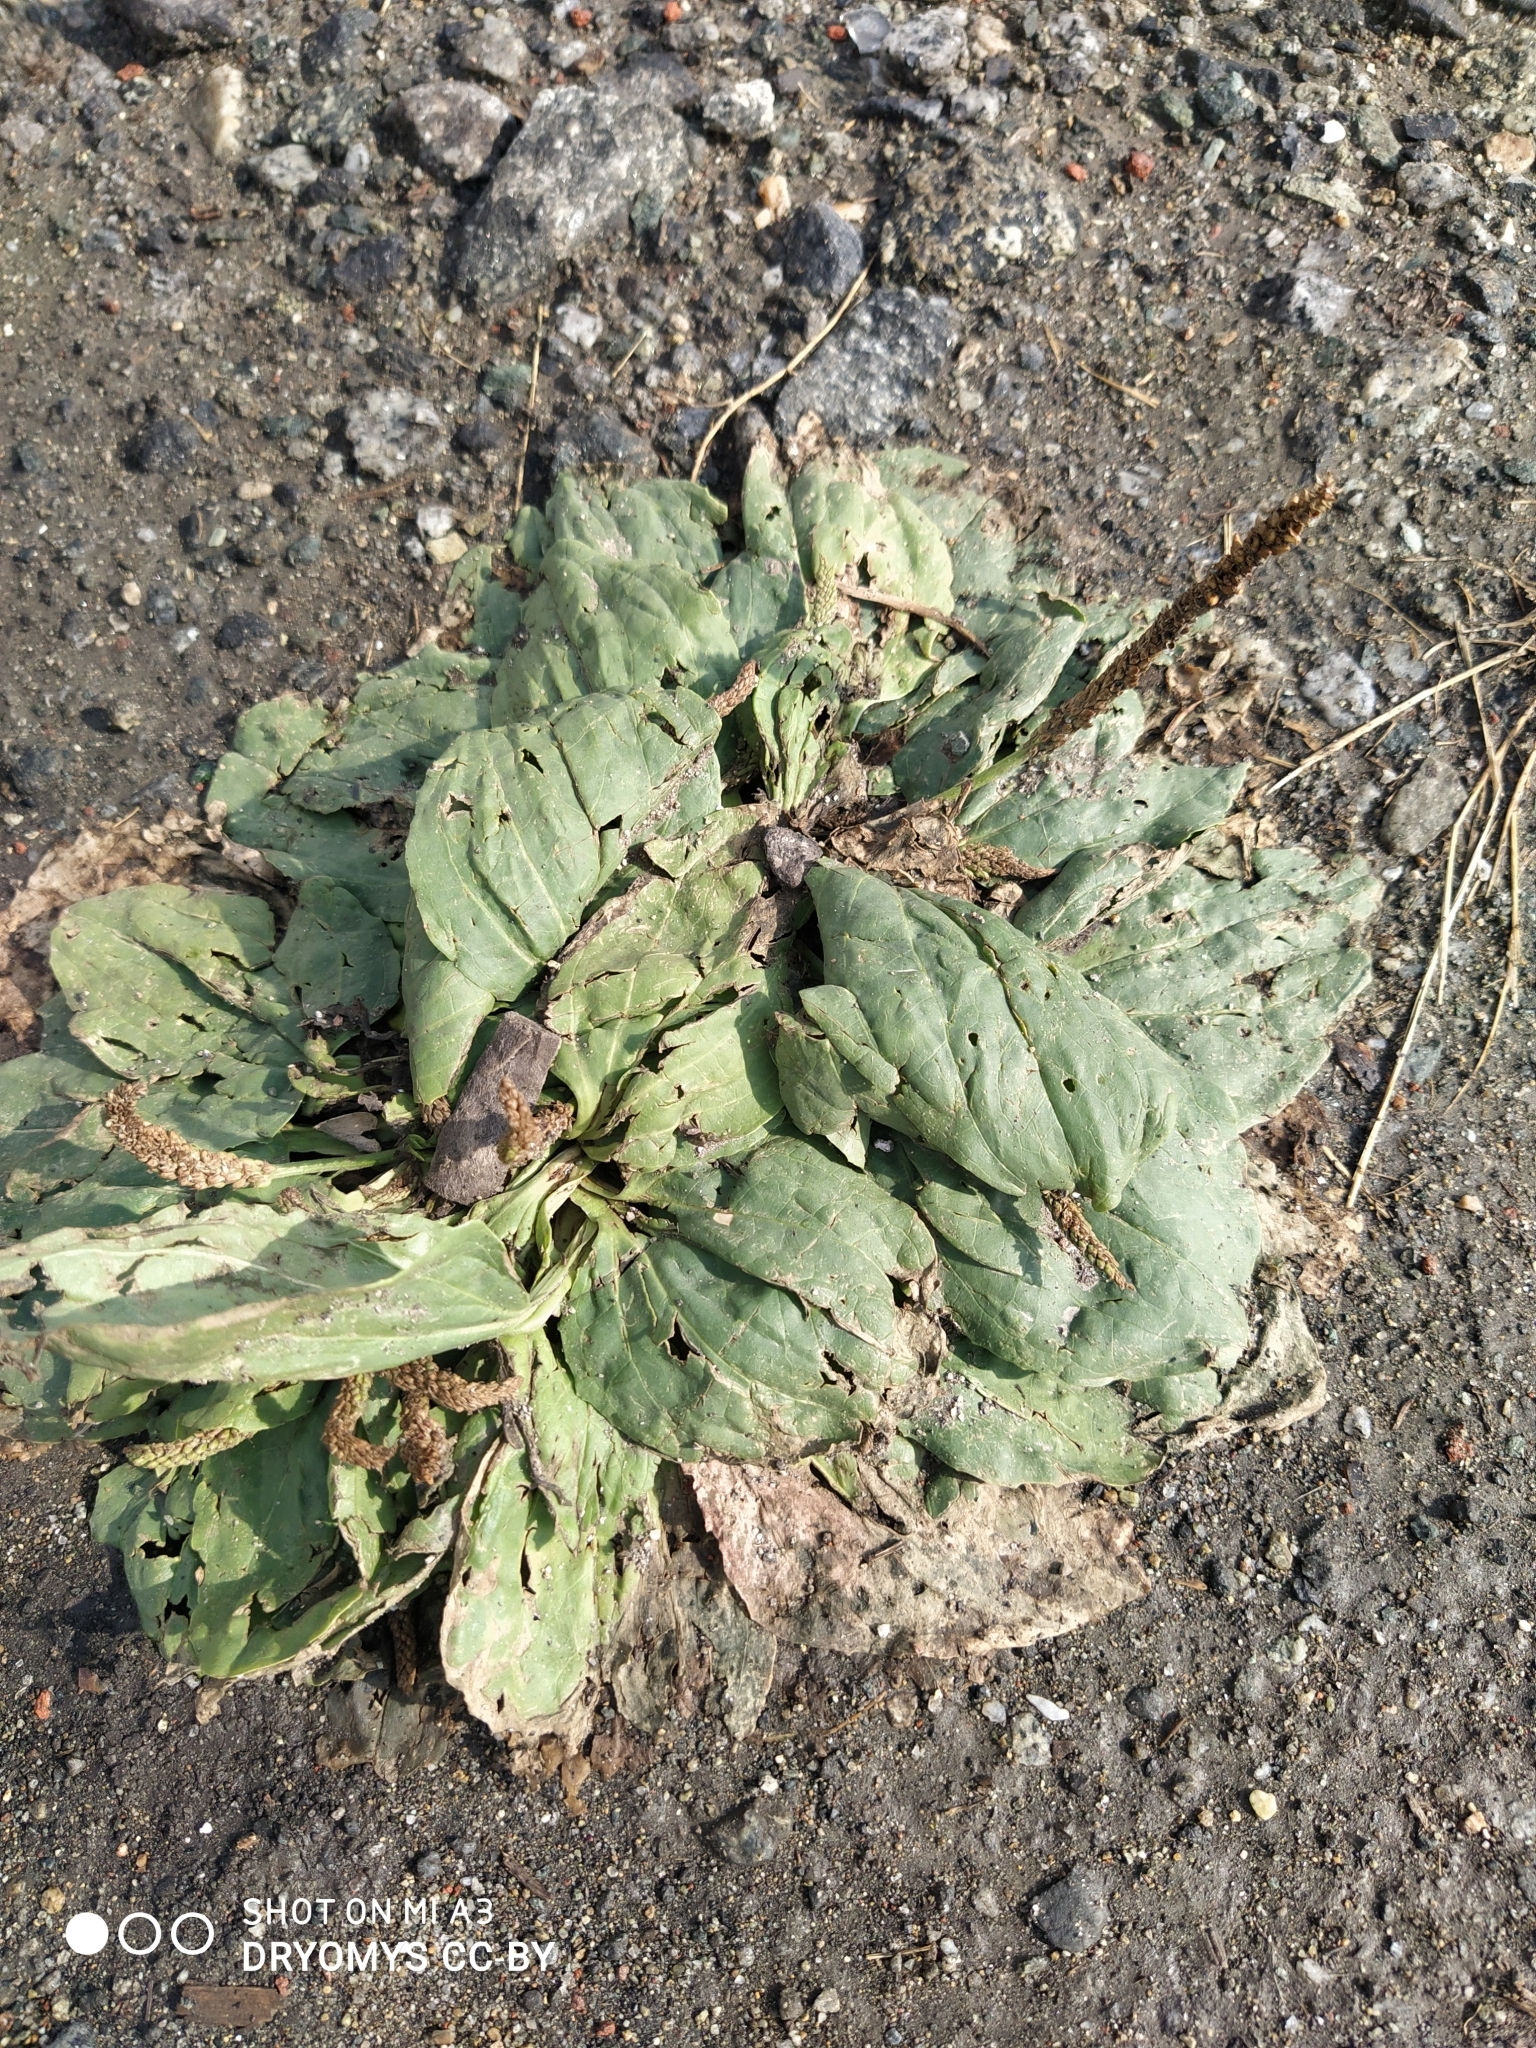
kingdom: Plantae
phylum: Tracheophyta
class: Magnoliopsida
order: Lamiales
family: Plantaginaceae
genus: Plantago
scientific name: Plantago major
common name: Common plantain
